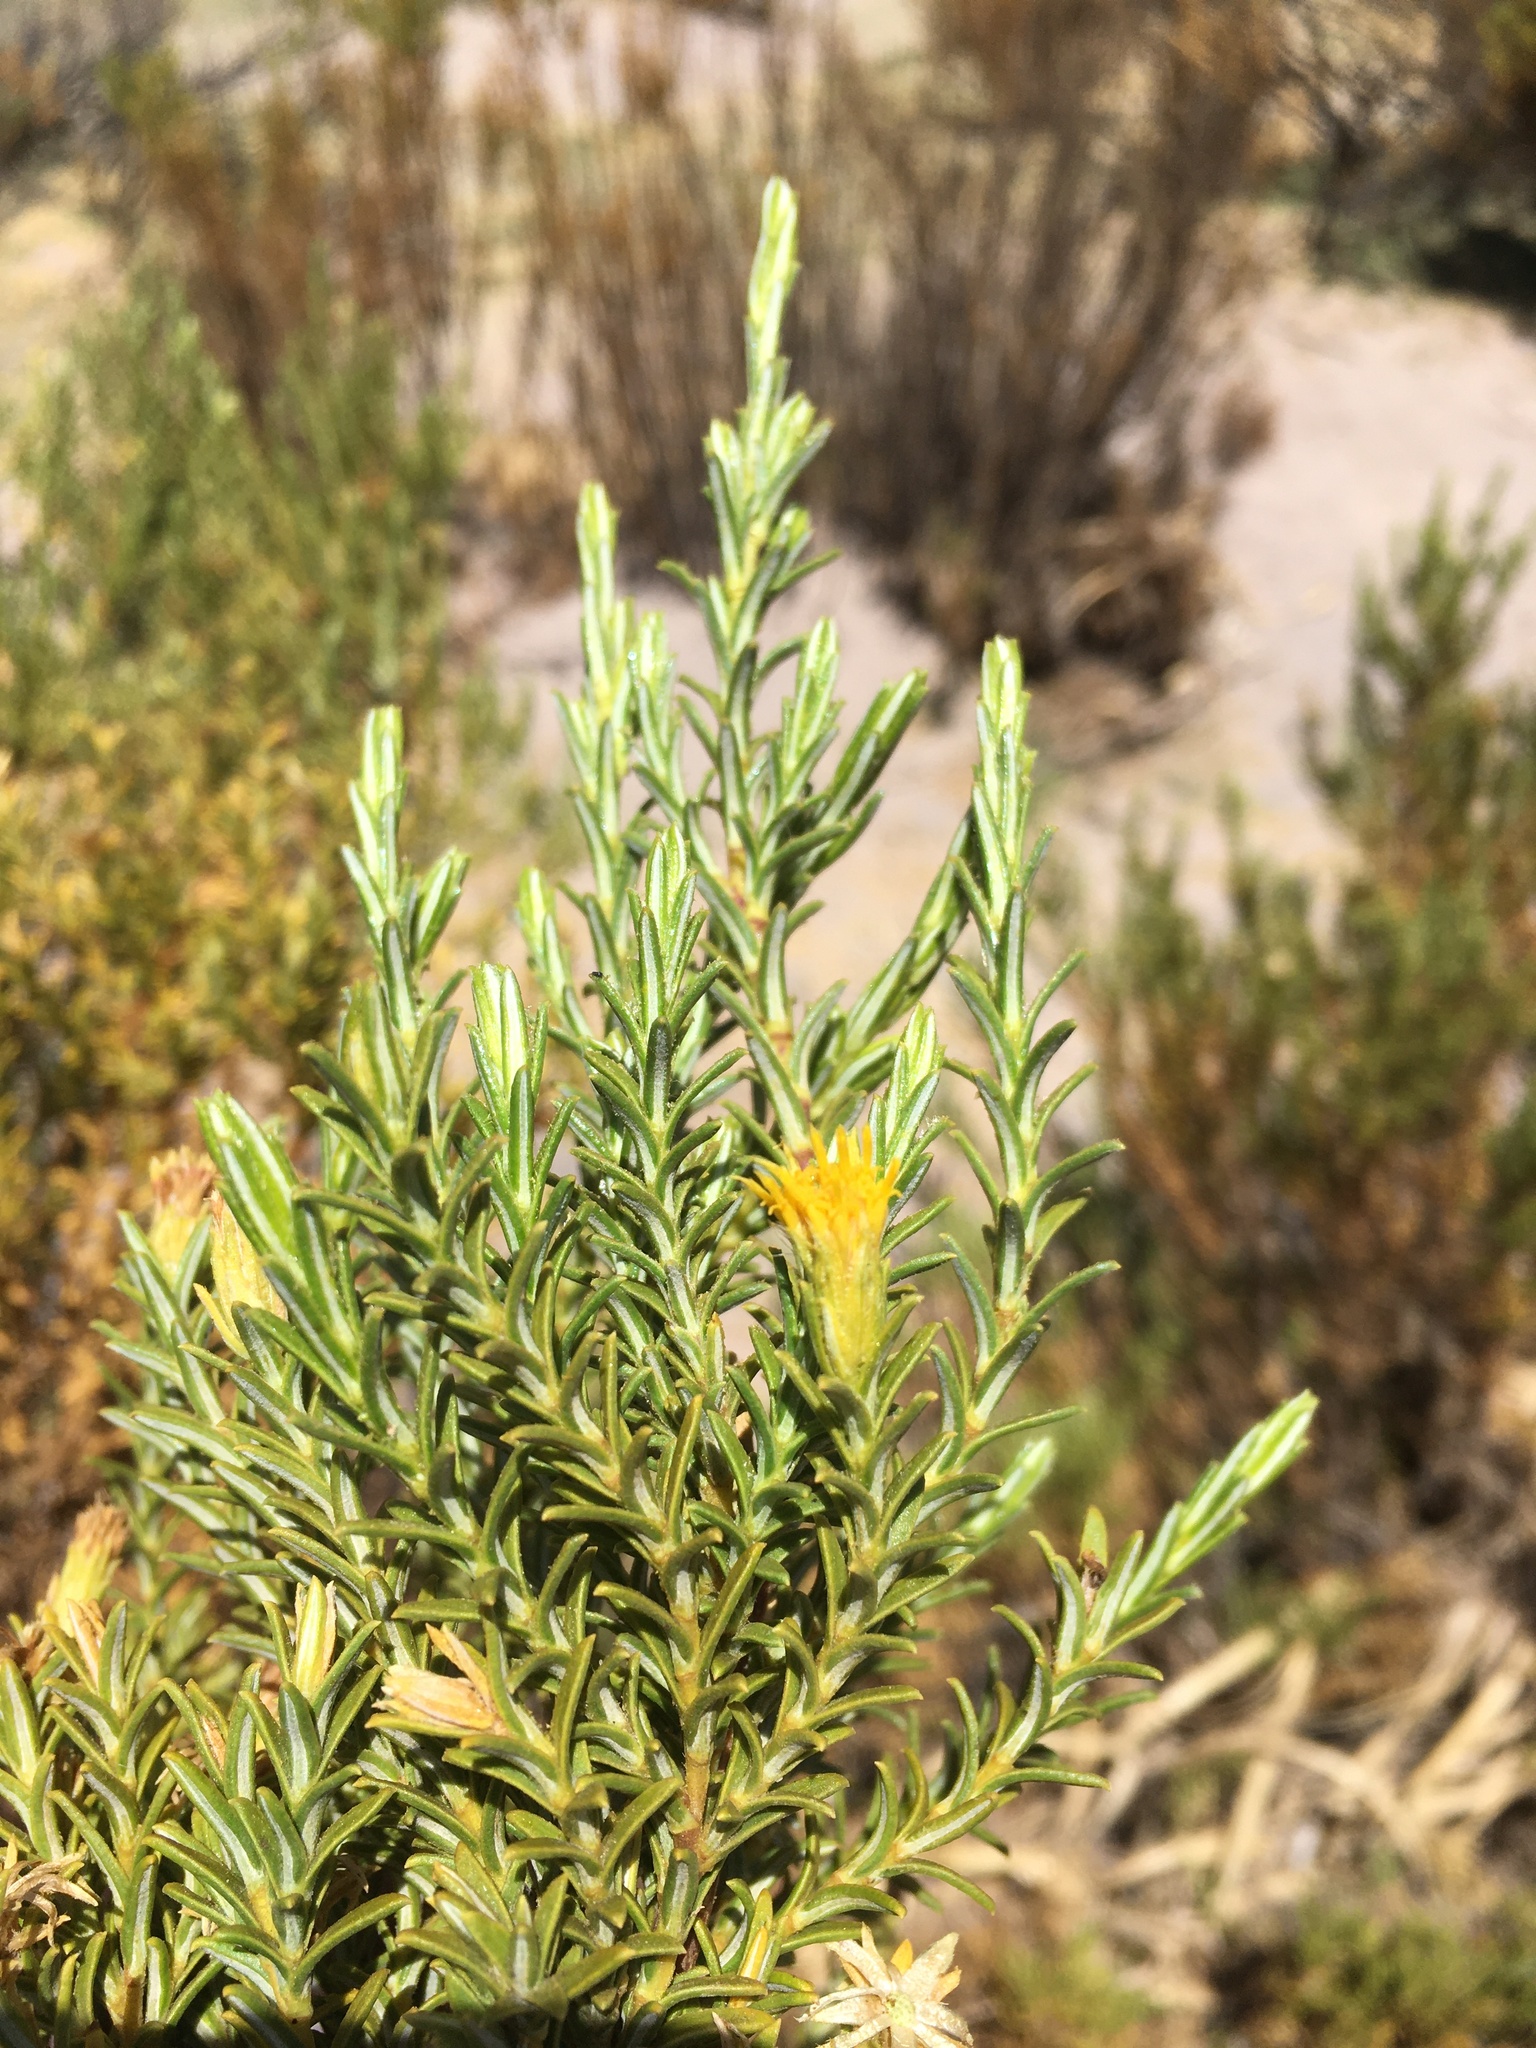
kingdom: Plantae
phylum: Tracheophyta
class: Magnoliopsida
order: Asterales
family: Asteraceae
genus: Parastrephia
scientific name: Parastrephia lucida
